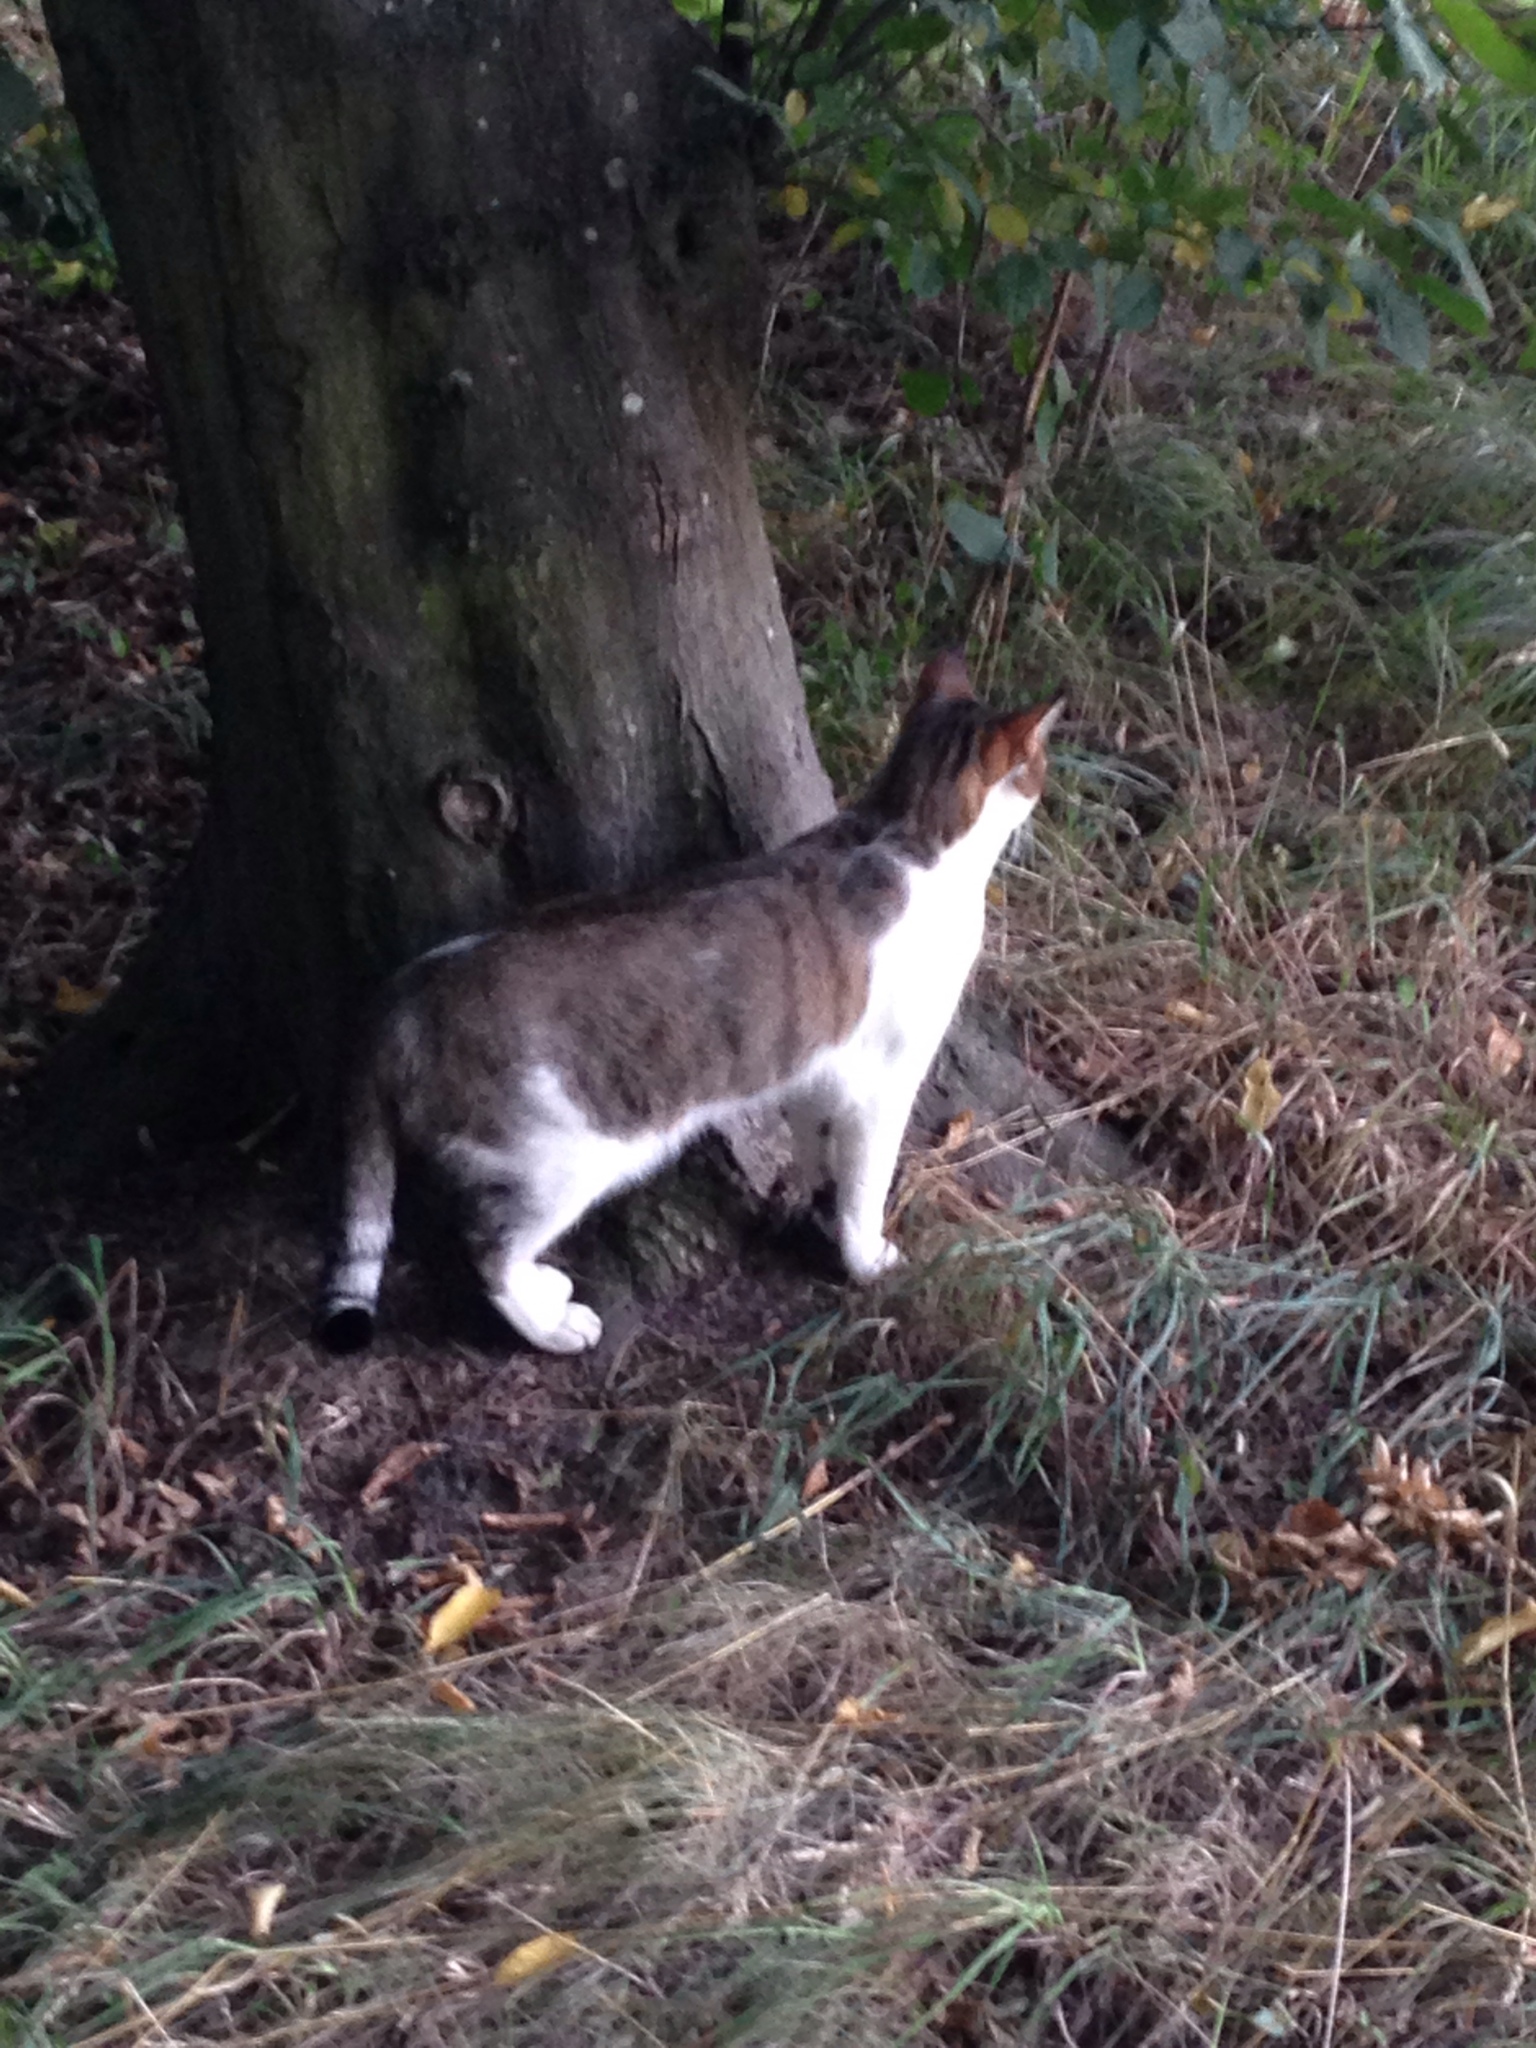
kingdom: Animalia
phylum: Chordata
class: Mammalia
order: Carnivora
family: Felidae
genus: Felis
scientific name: Felis catus
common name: Domestic cat
